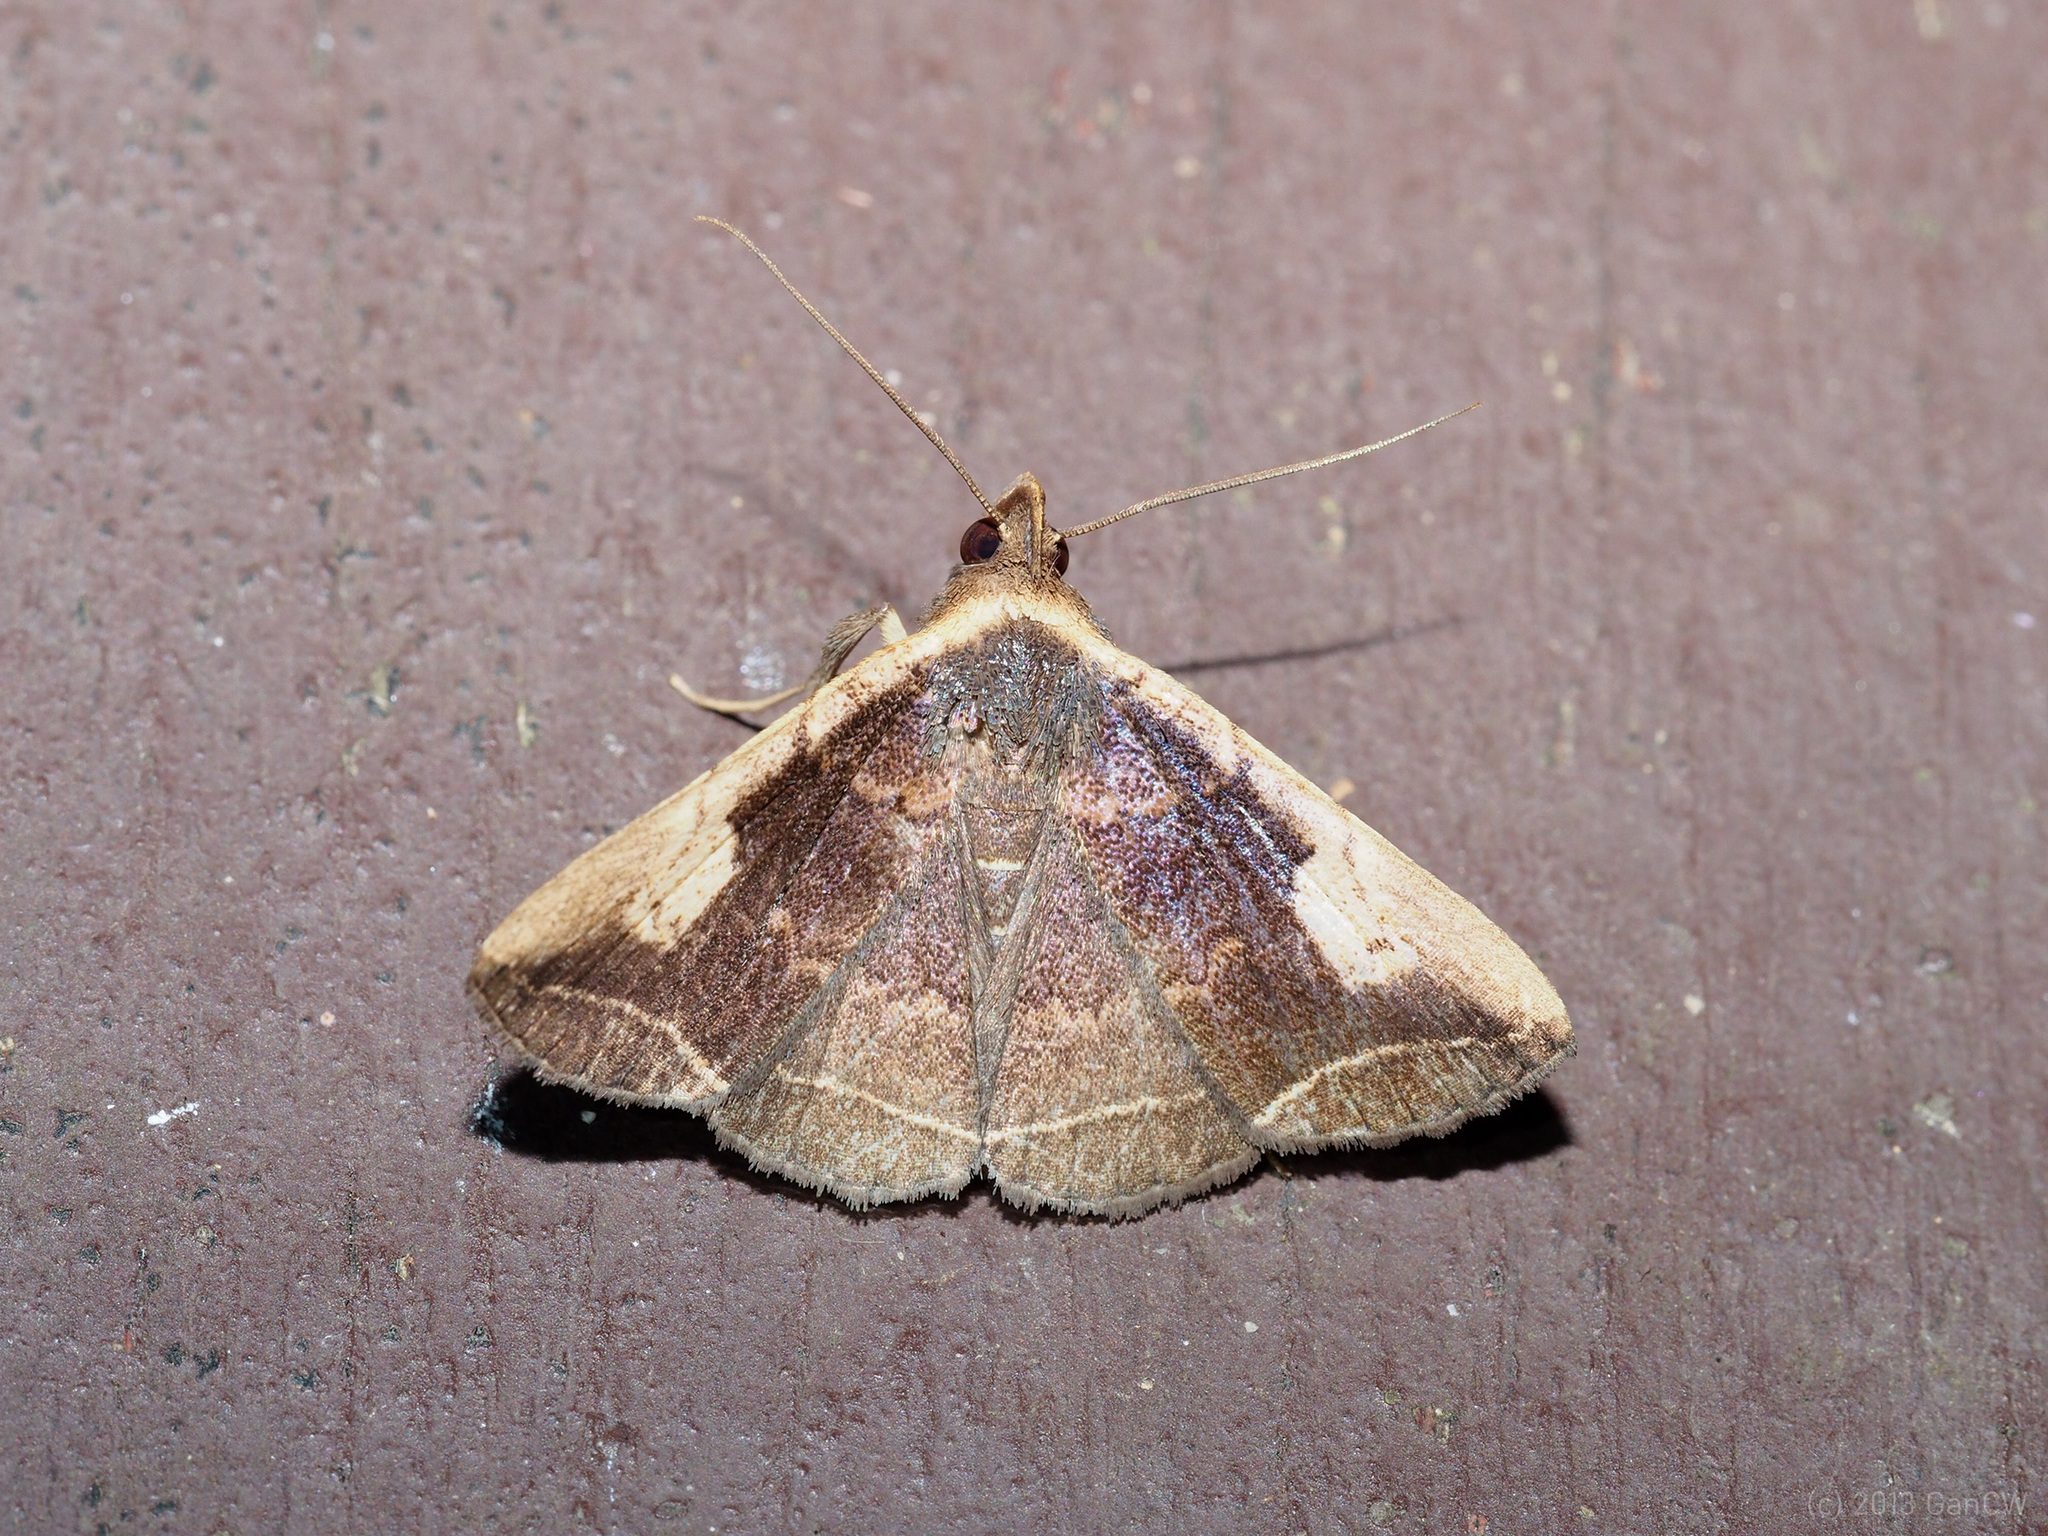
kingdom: Animalia
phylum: Arthropoda
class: Insecta
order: Lepidoptera
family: Erebidae
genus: Simplicia
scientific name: Simplicia variegata
